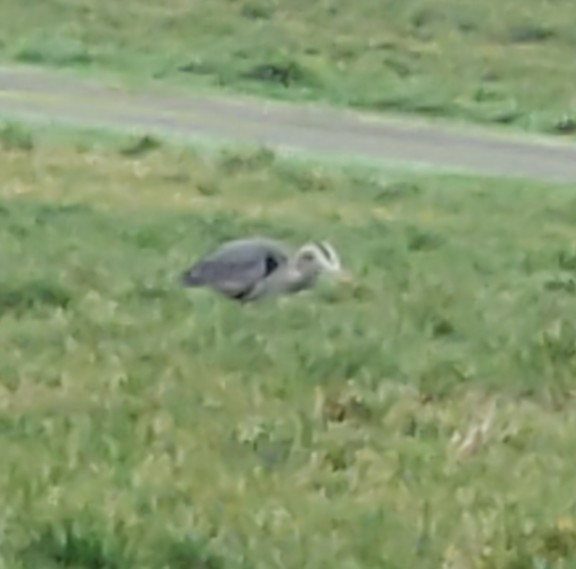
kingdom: Animalia
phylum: Chordata
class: Aves
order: Pelecaniformes
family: Ardeidae
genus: Ardea
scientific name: Ardea herodias
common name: Great blue heron
